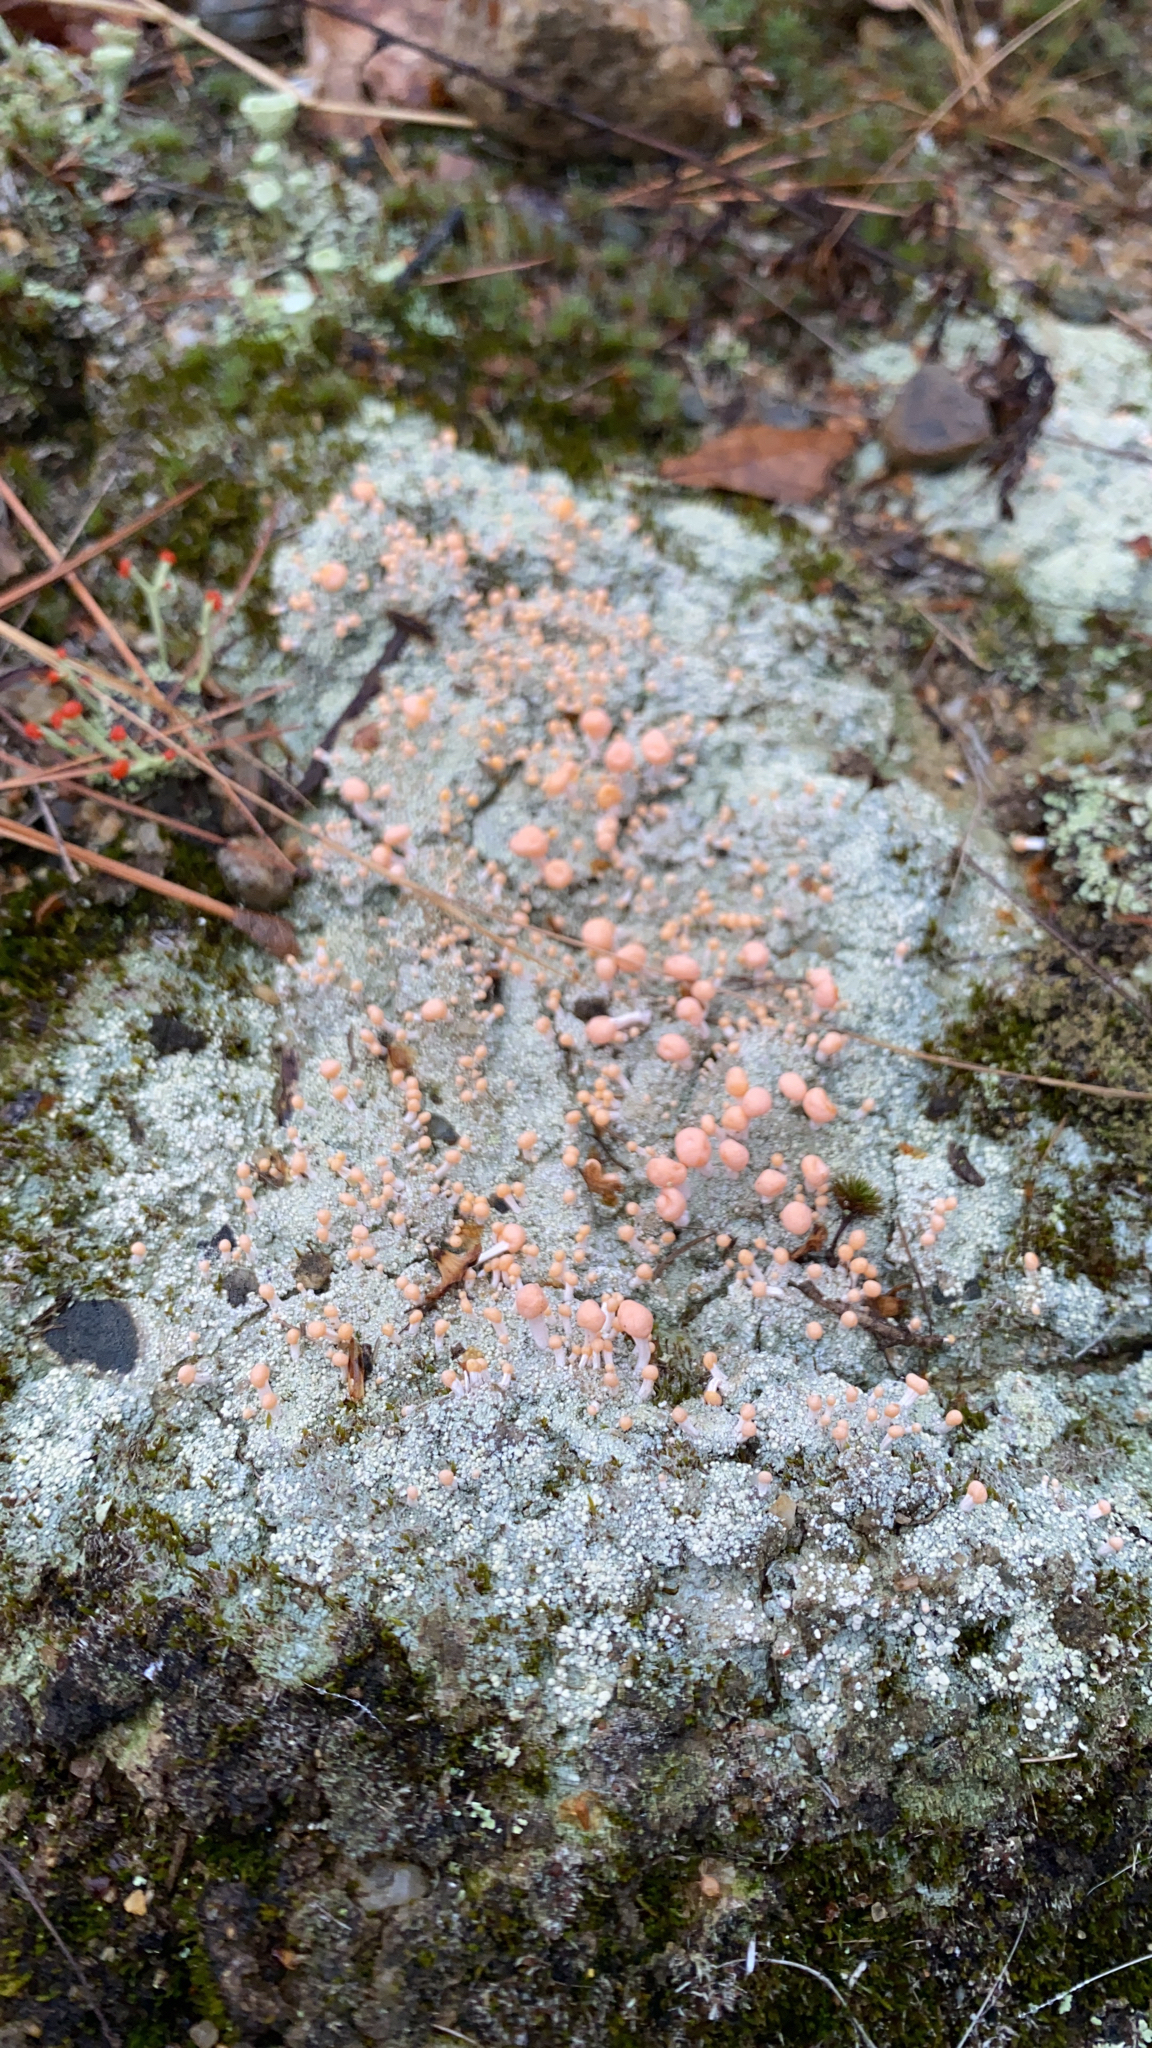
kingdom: Fungi
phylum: Ascomycota
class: Lecanoromycetes
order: Pertusariales
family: Icmadophilaceae
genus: Dibaeis
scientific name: Dibaeis baeomyces
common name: Pink earth lichen
